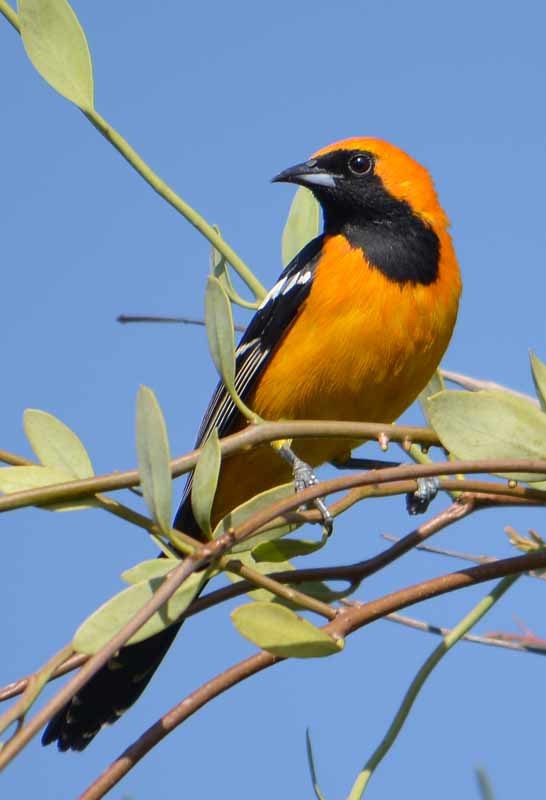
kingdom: Animalia
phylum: Chordata
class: Aves
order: Passeriformes
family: Icteridae
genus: Icterus
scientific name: Icterus cucullatus
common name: Hooded oriole
